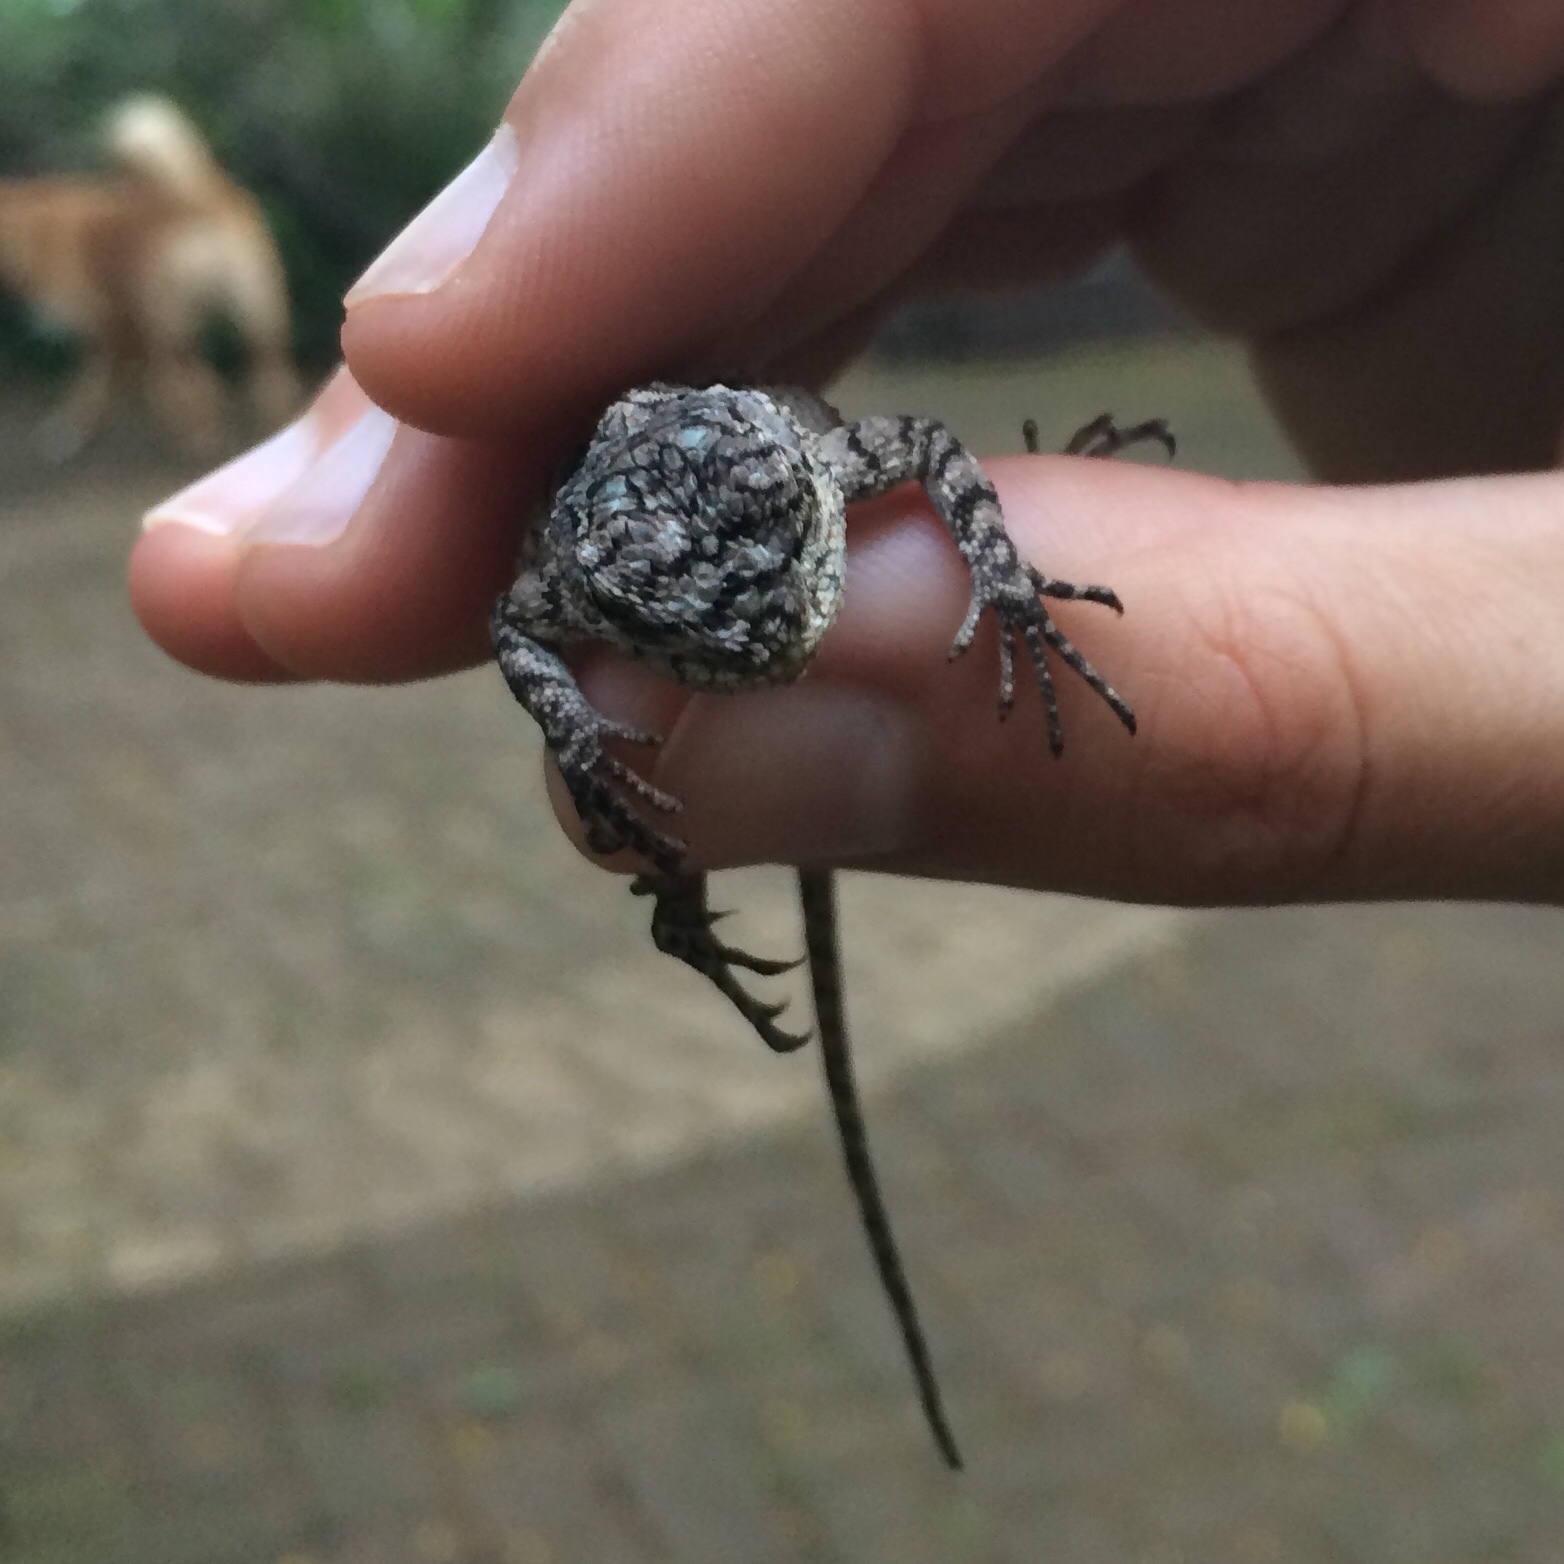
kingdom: Animalia
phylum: Chordata
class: Squamata
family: Agamidae
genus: Acanthocercus
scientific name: Acanthocercus atricollis
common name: Southern tree agama
